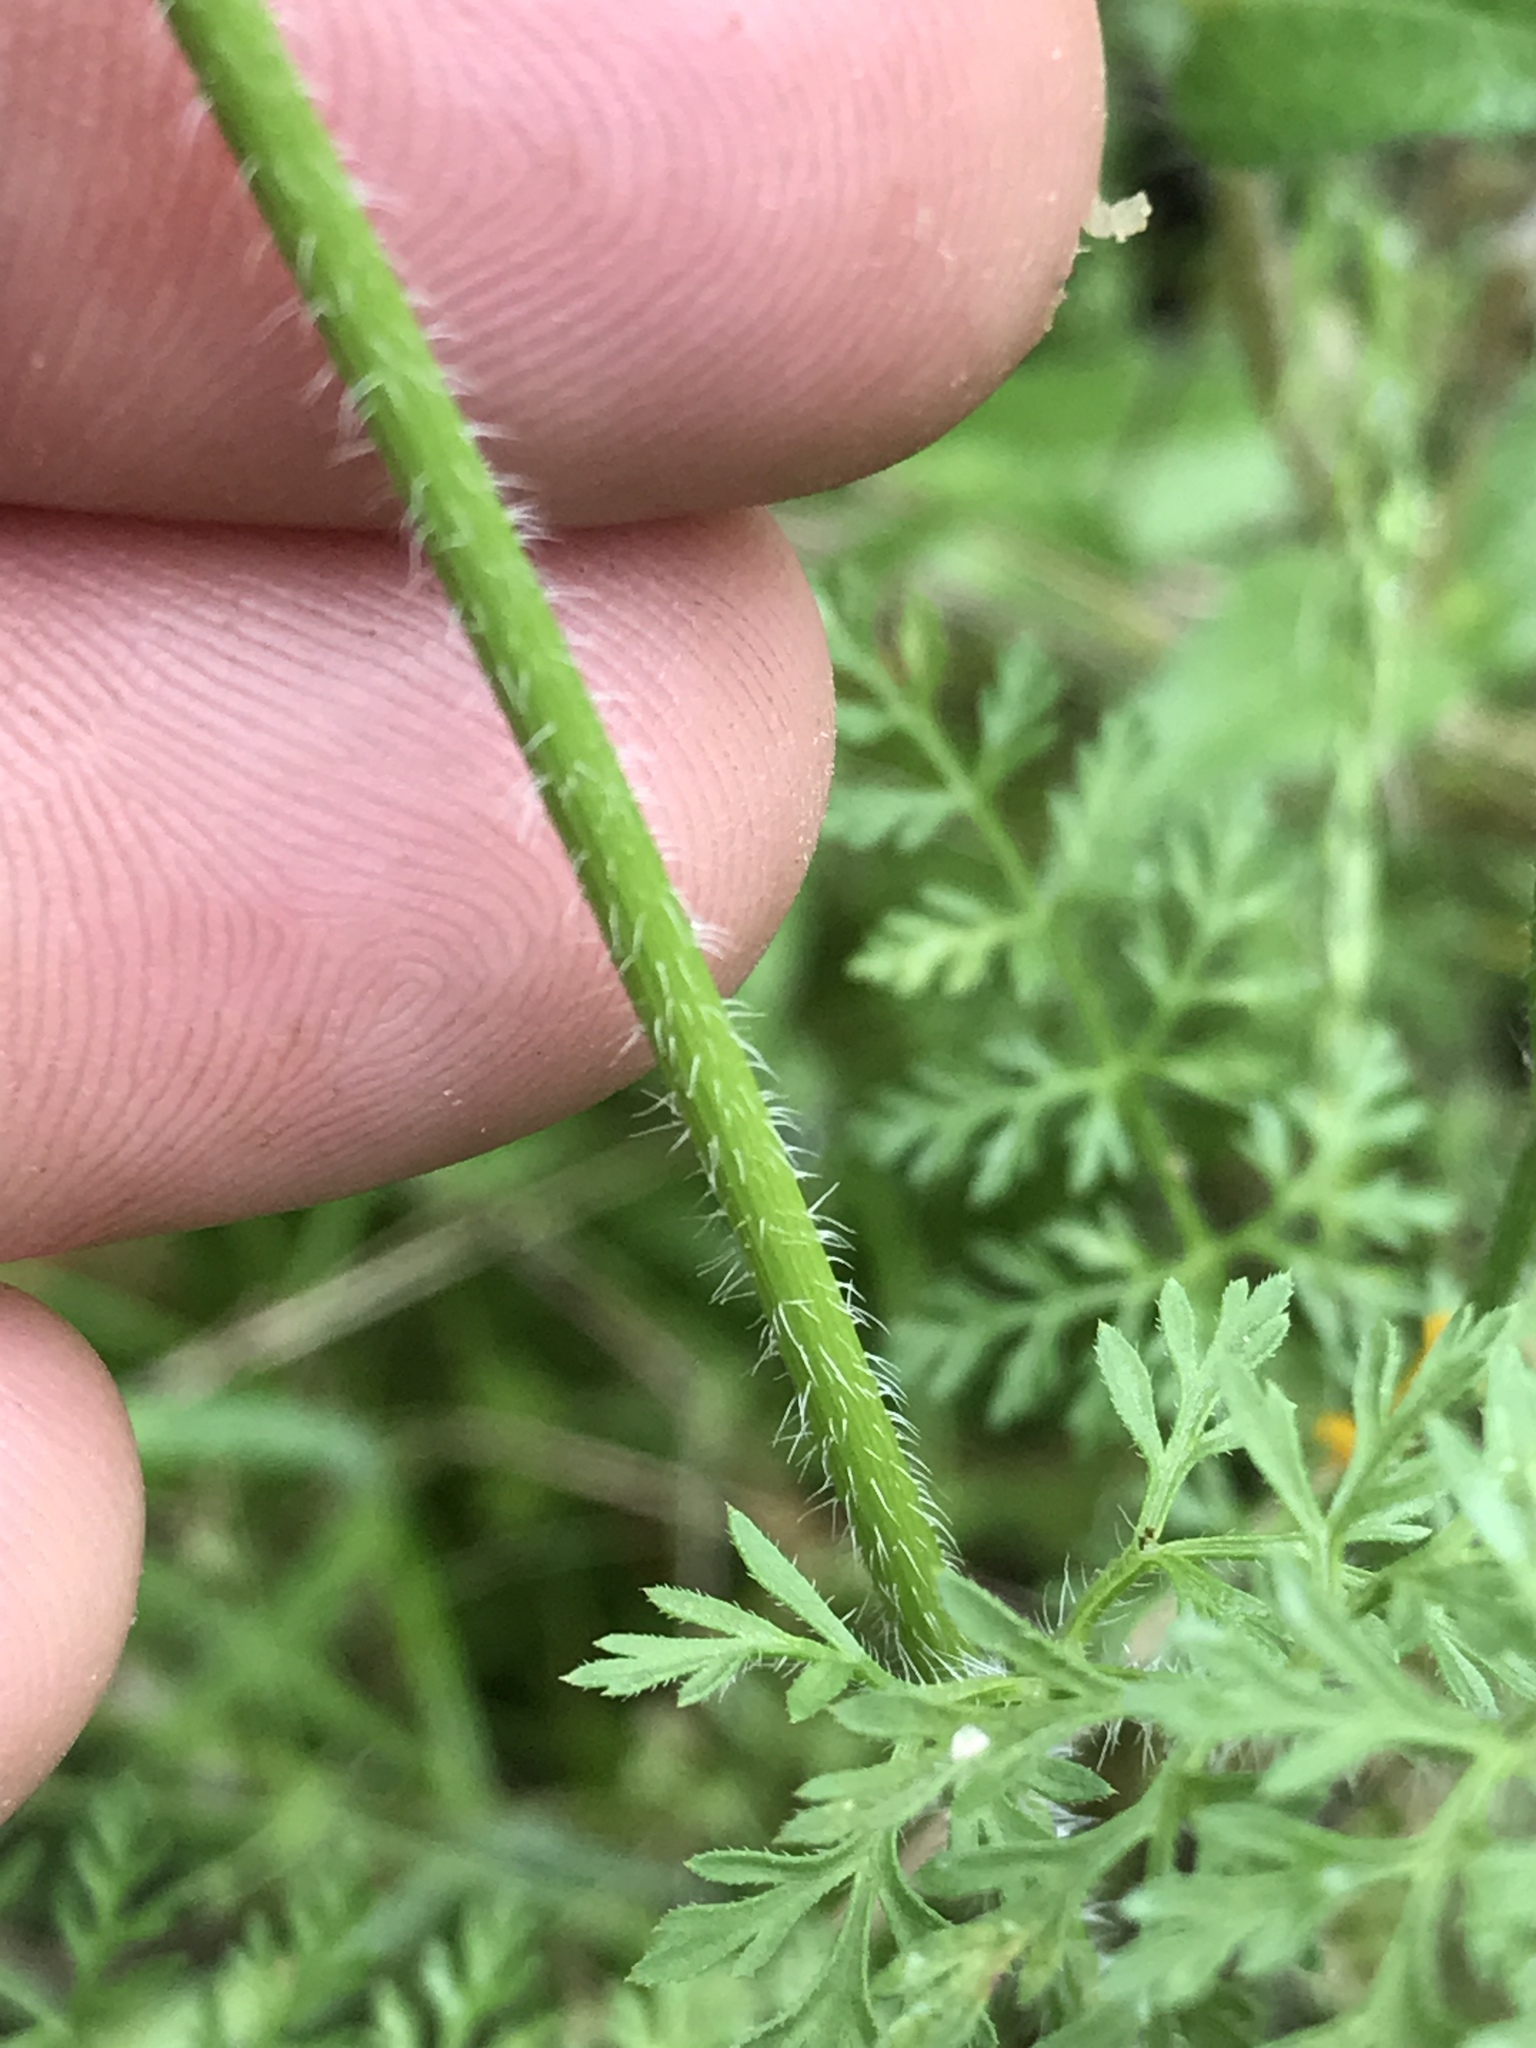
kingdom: Plantae
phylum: Tracheophyta
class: Magnoliopsida
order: Apiales
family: Apiaceae
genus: Daucus
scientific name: Daucus pusillus
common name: Southwest wild carrot
